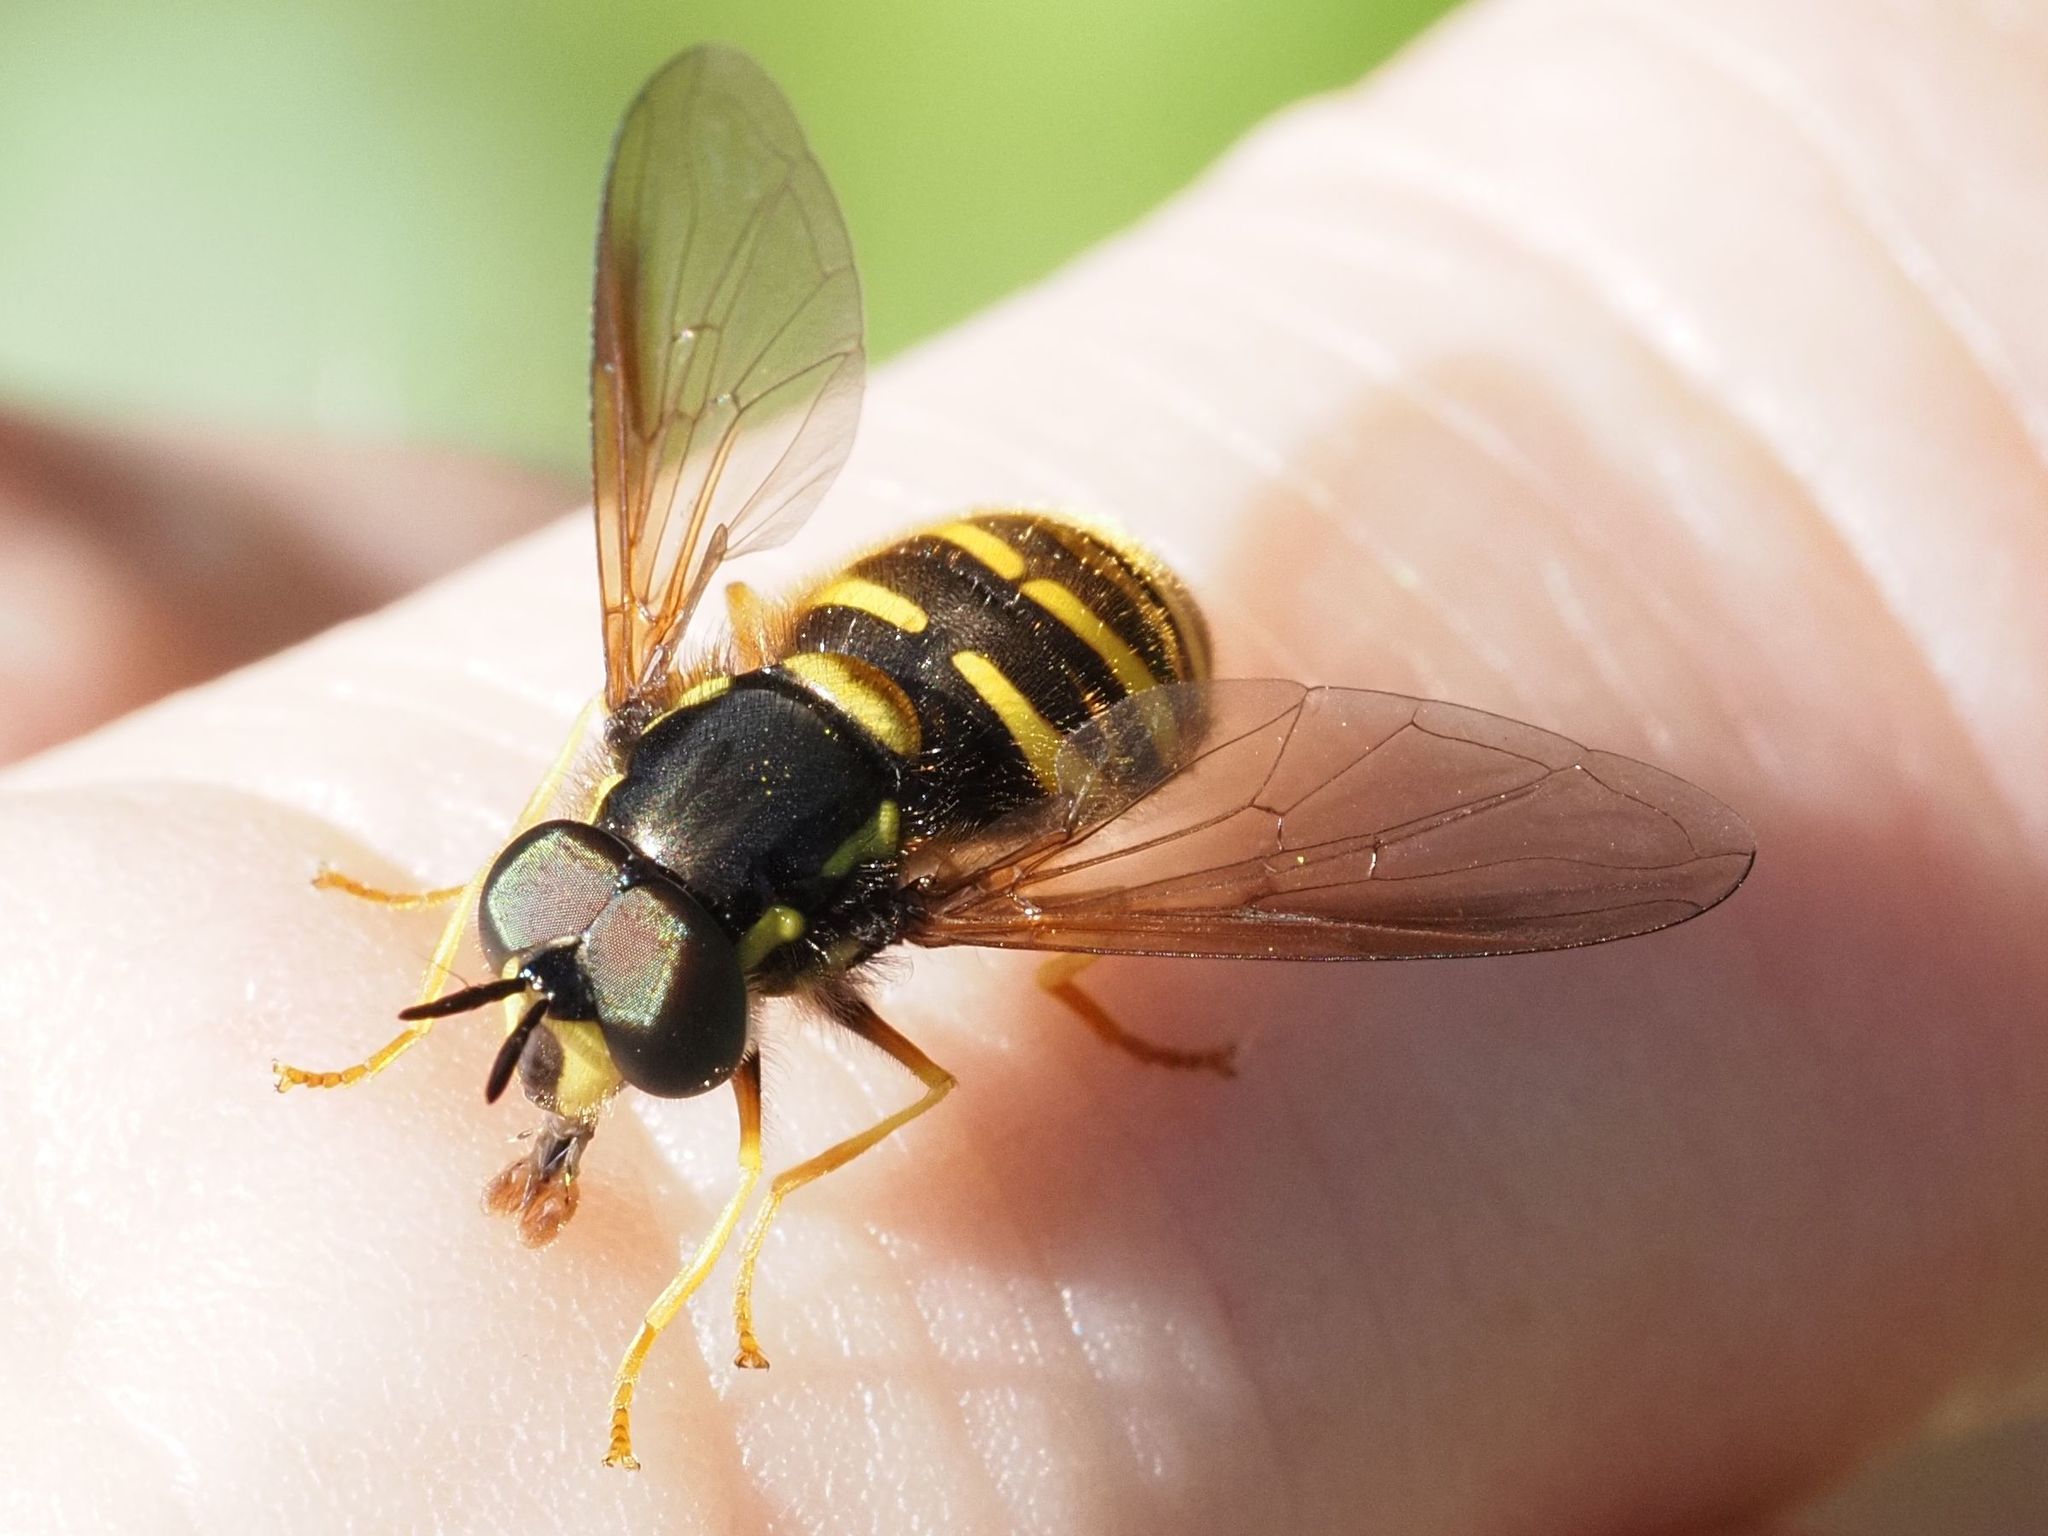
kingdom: Animalia
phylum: Arthropoda
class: Insecta
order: Diptera
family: Syrphidae
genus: Chrysotoxum
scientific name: Chrysotoxum arcuatum
